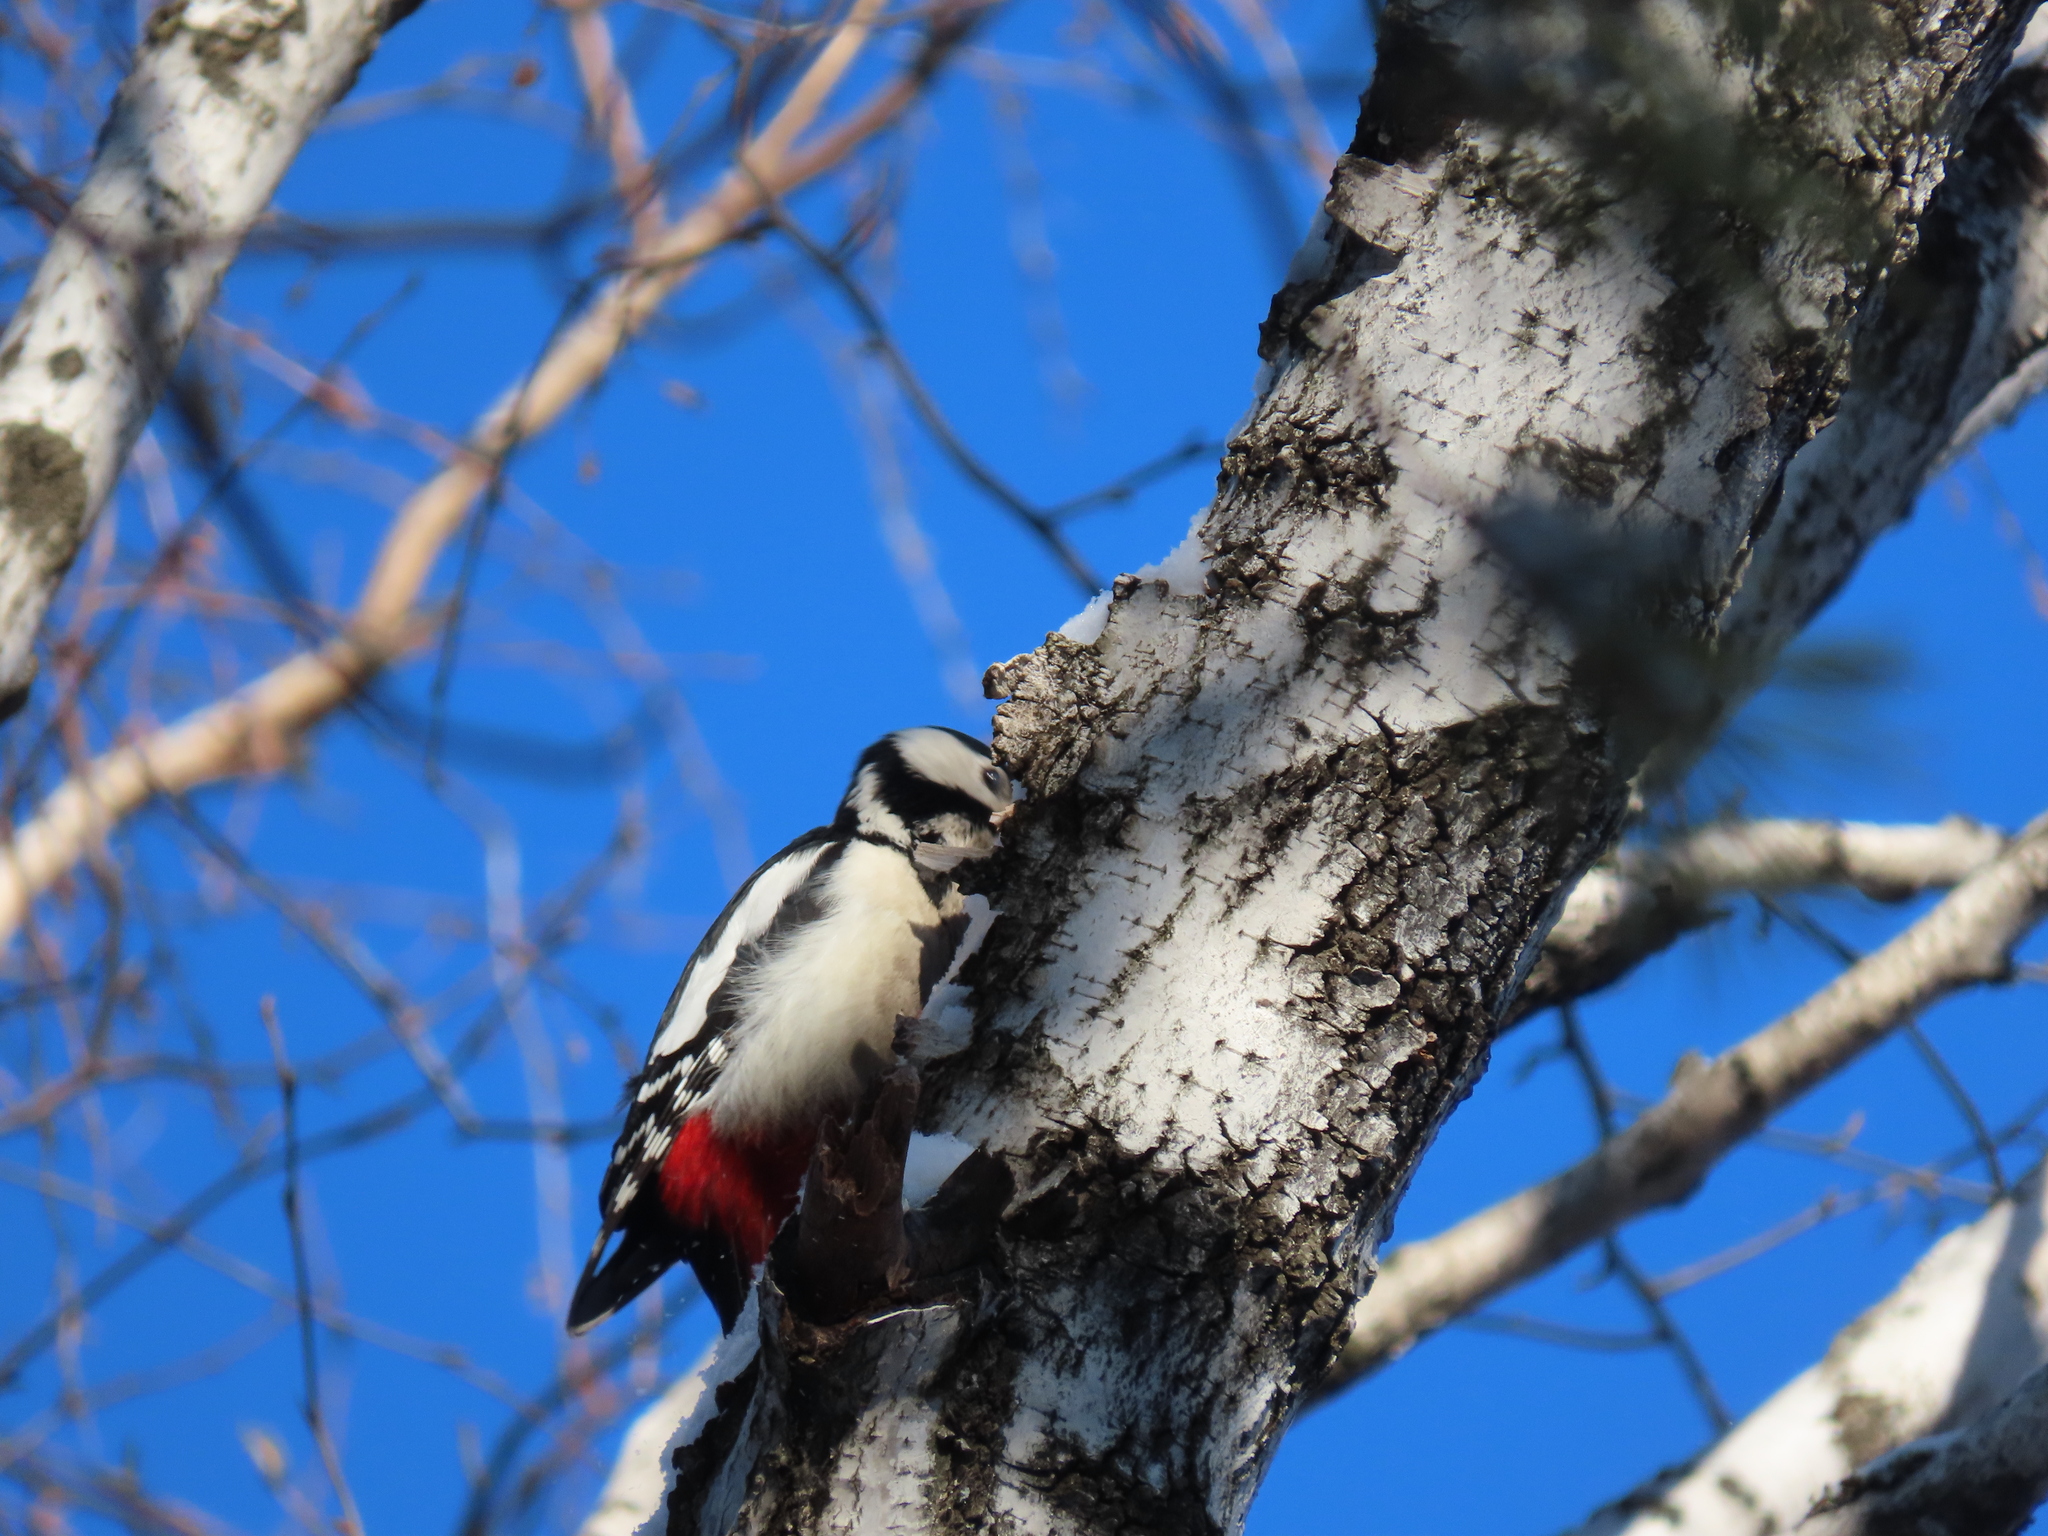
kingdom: Animalia
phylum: Chordata
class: Aves
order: Piciformes
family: Picidae
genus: Dendrocopos
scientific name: Dendrocopos major
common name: Great spotted woodpecker
